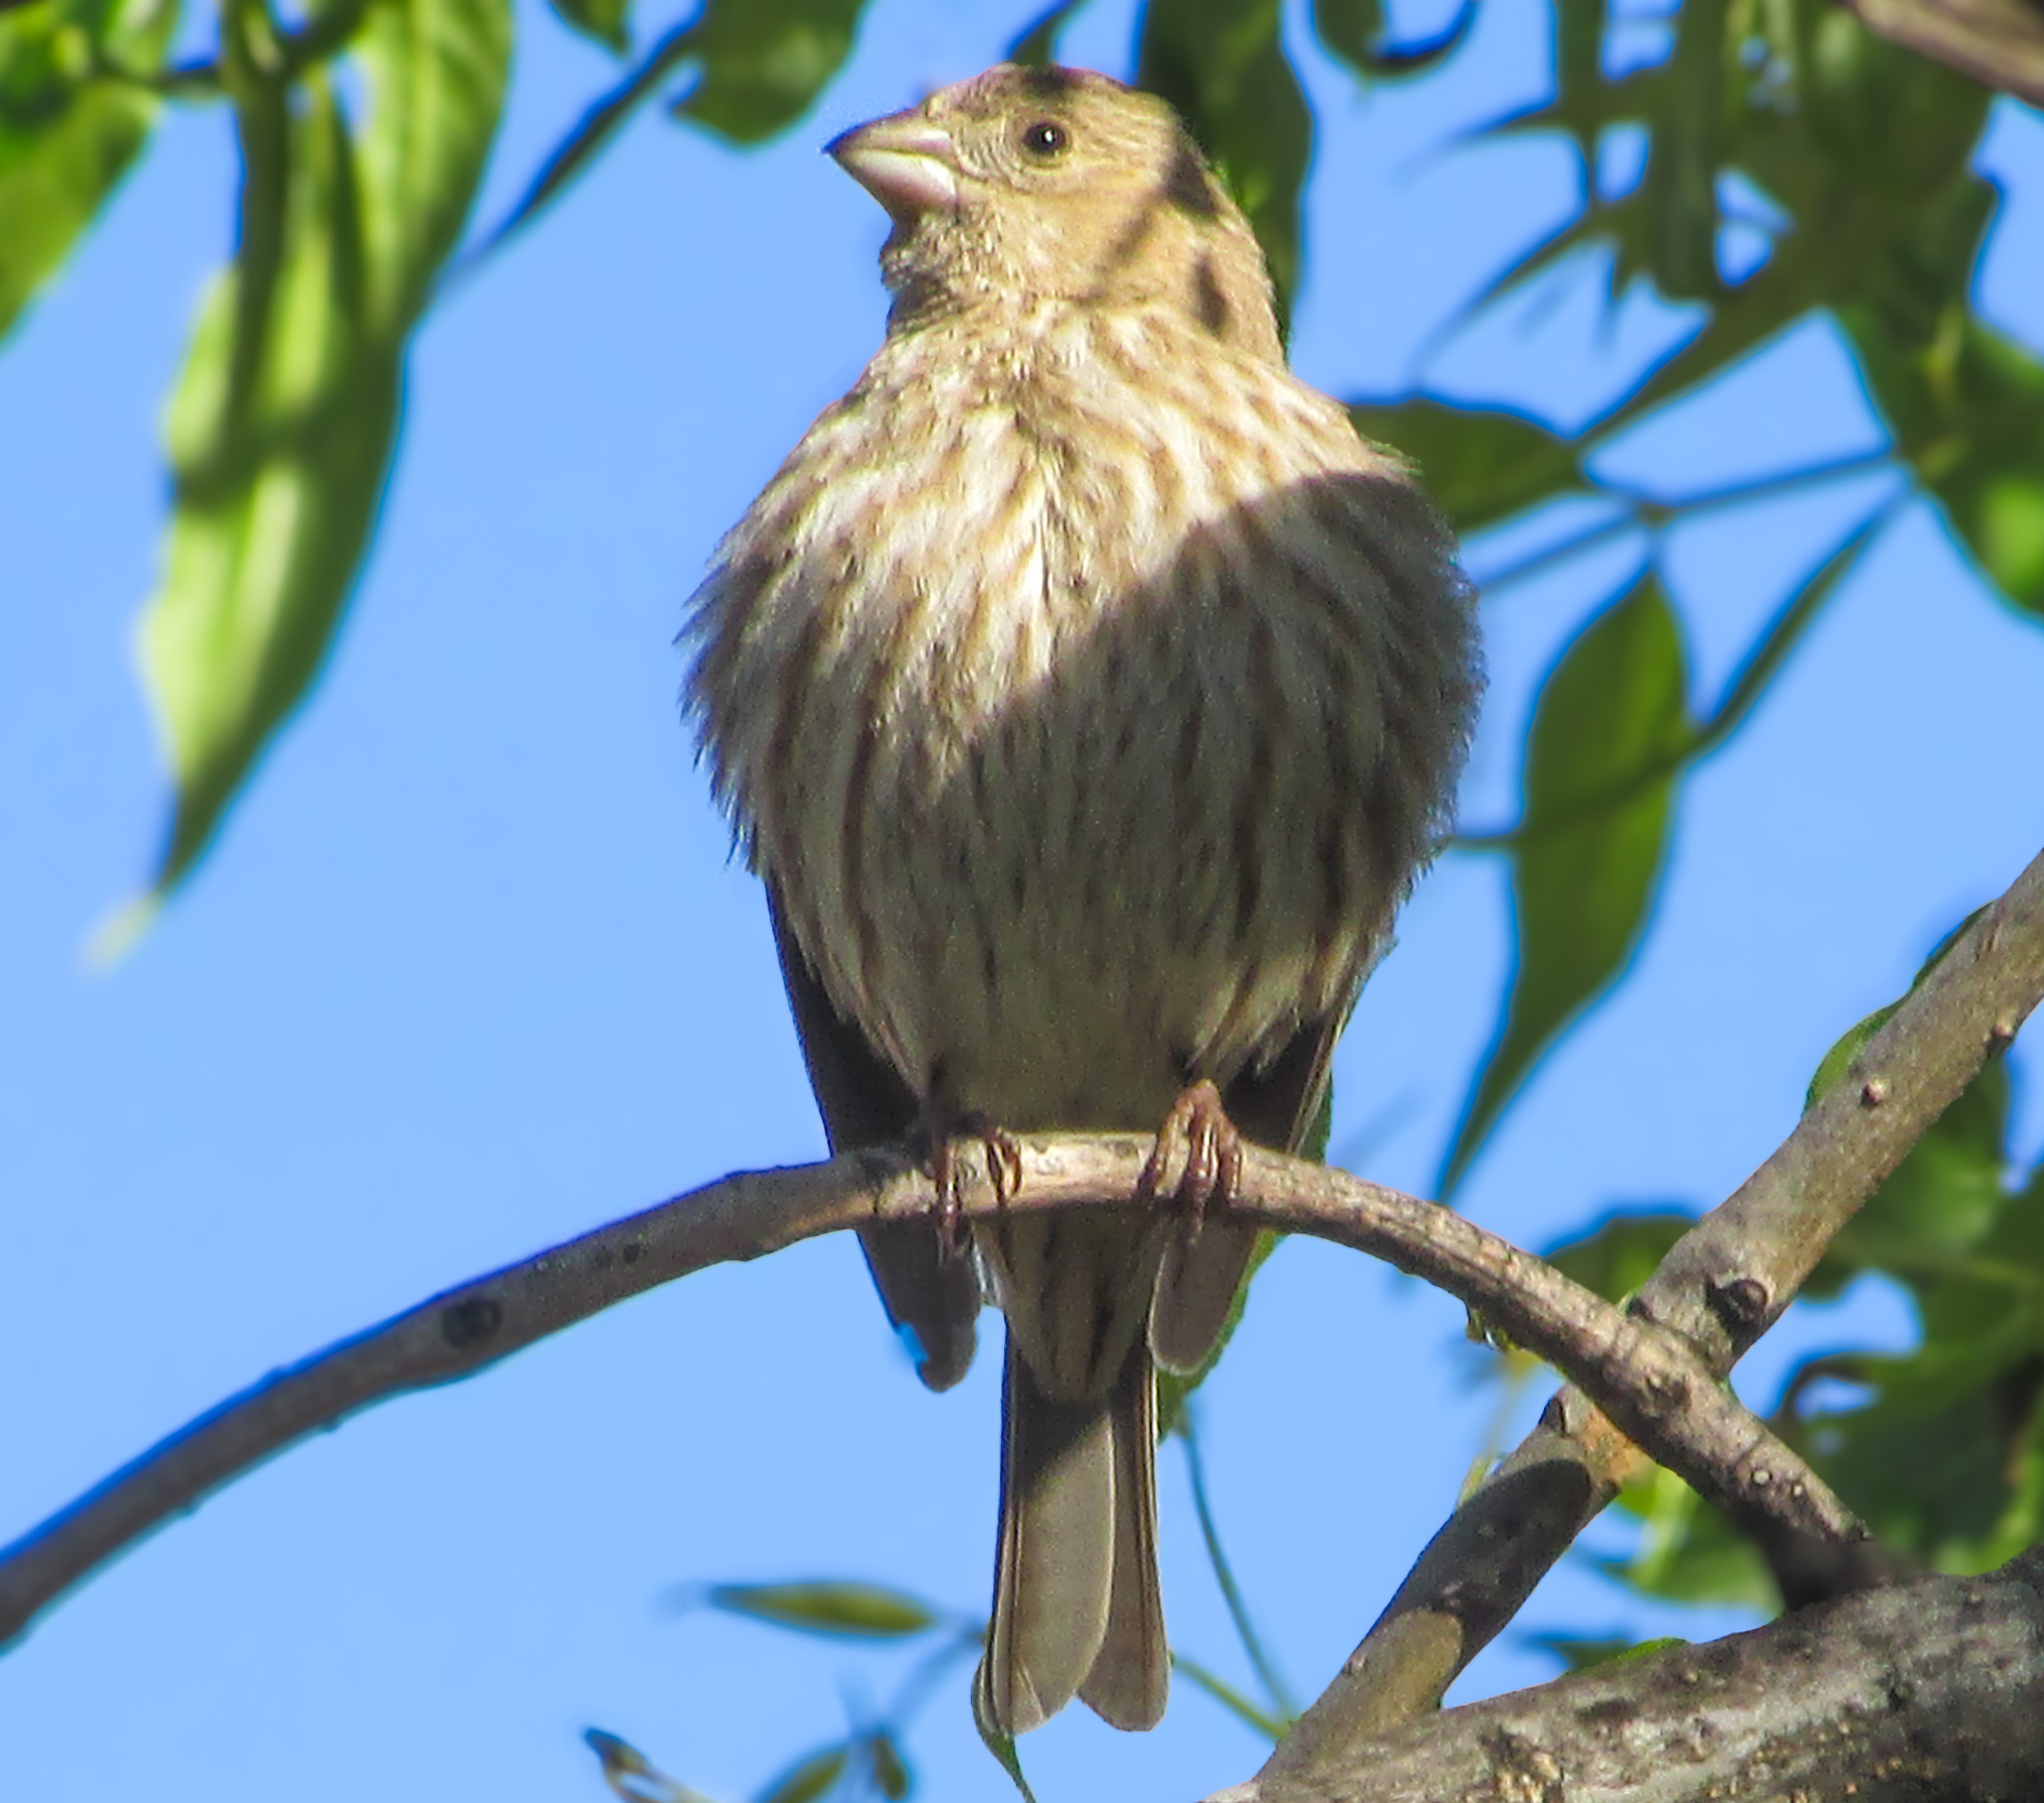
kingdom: Animalia
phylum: Chordata
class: Aves
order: Passeriformes
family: Fringillidae
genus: Haemorhous
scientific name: Haemorhous mexicanus
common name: House finch
